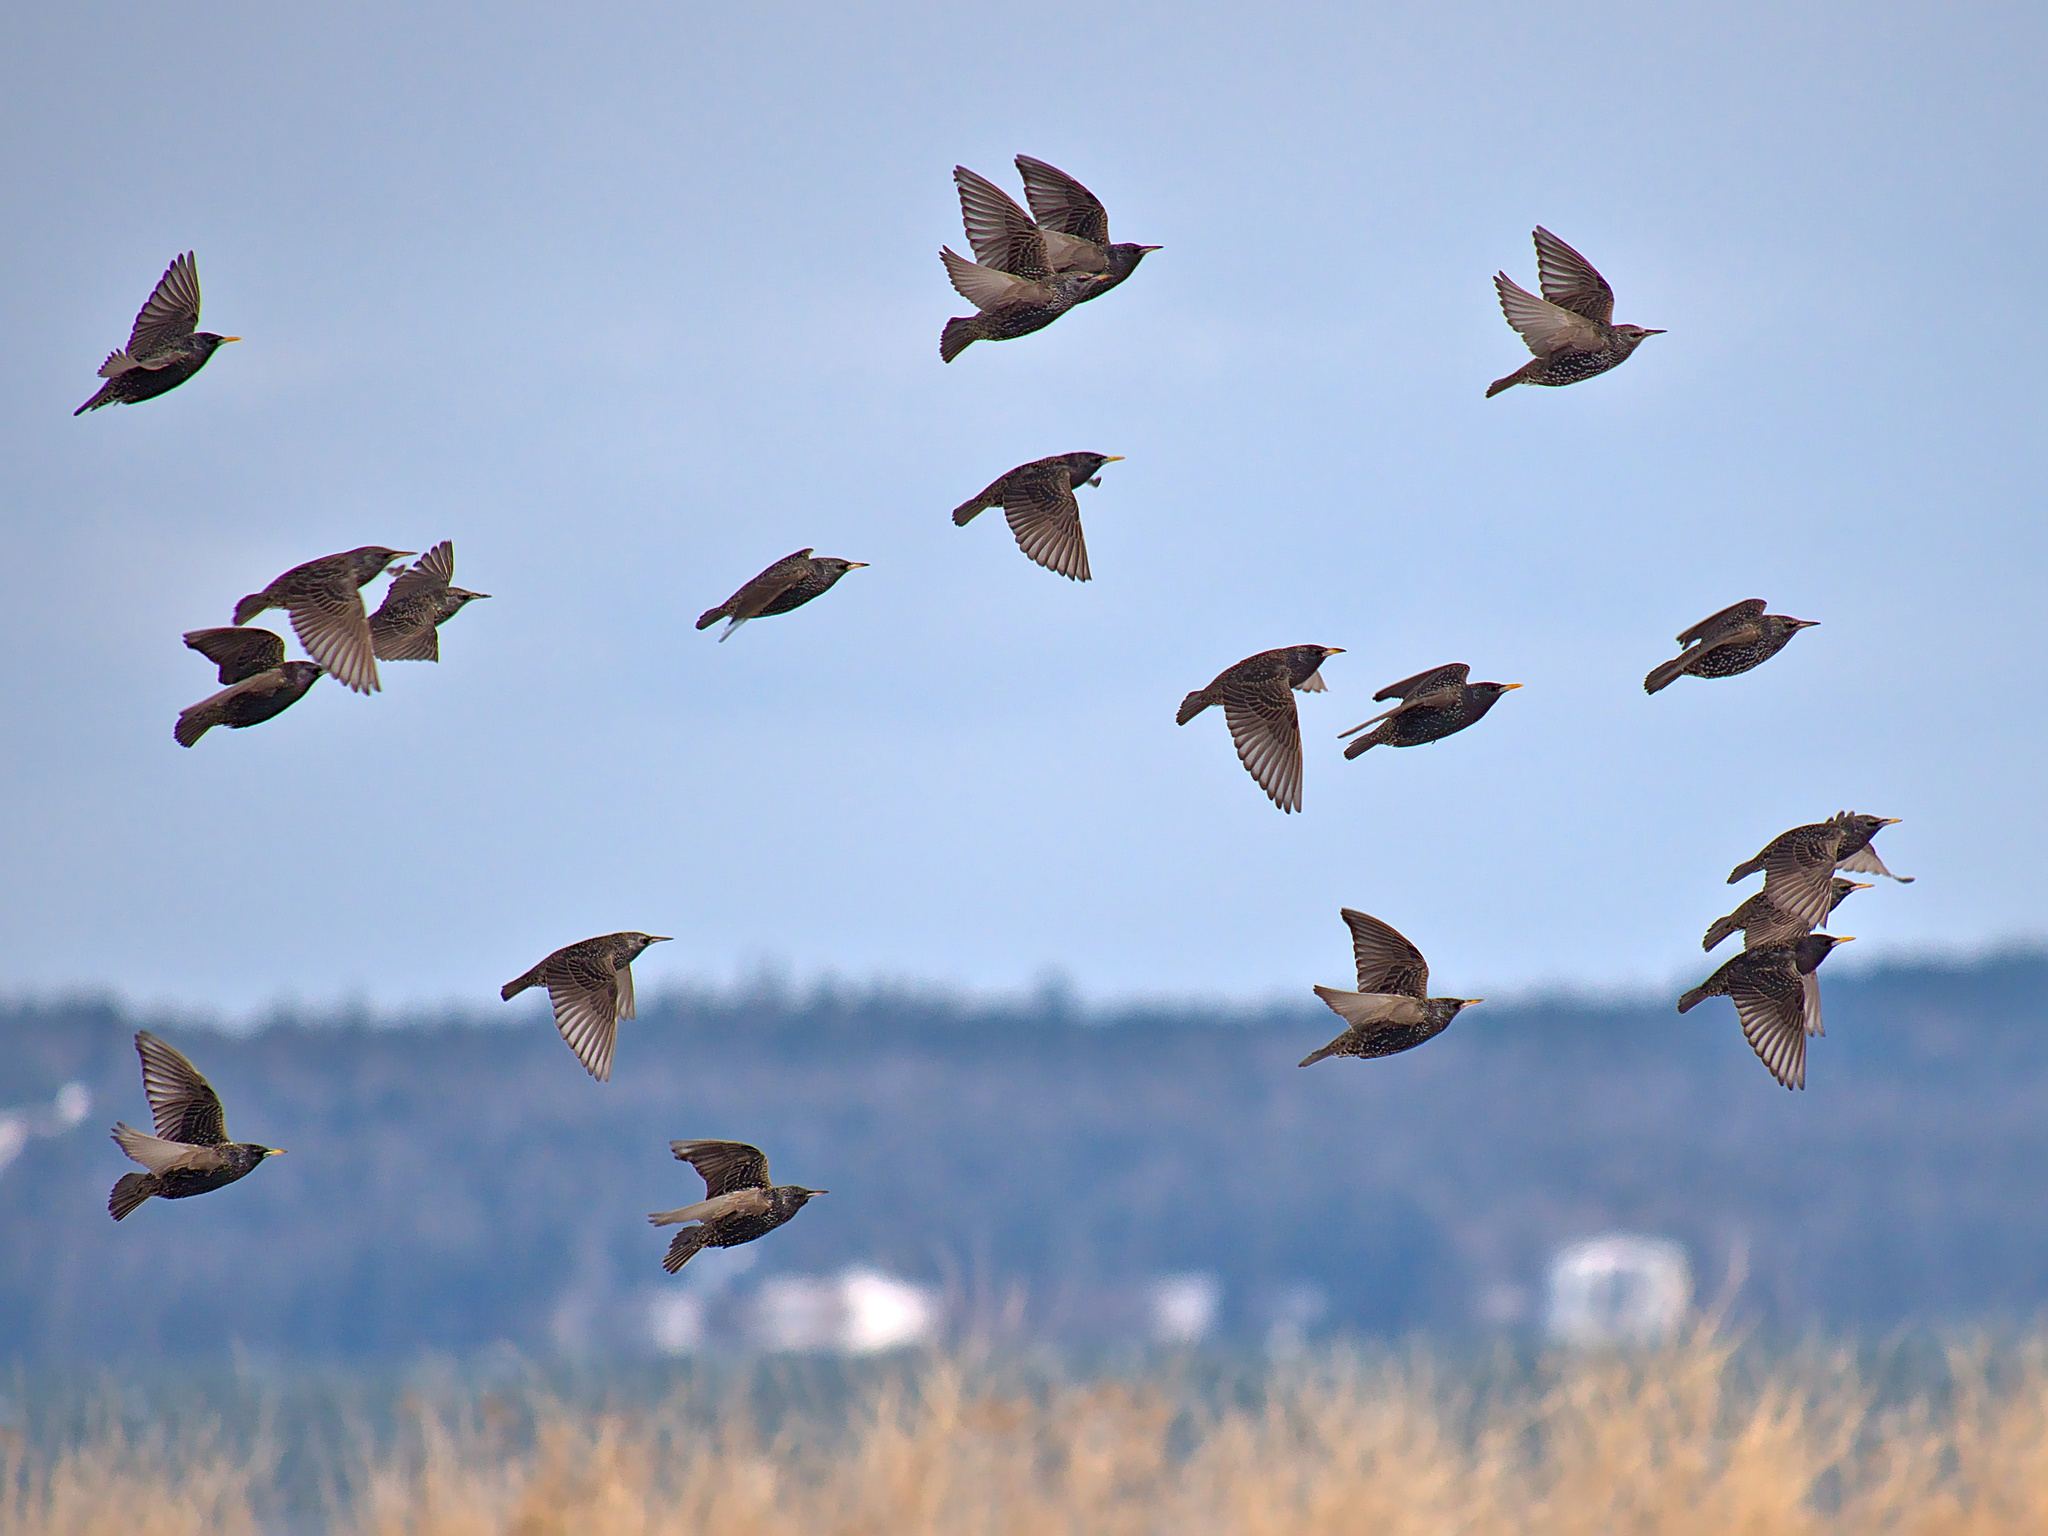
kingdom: Animalia
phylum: Chordata
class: Aves
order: Passeriformes
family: Sturnidae
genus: Sturnus
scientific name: Sturnus vulgaris
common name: Common starling
